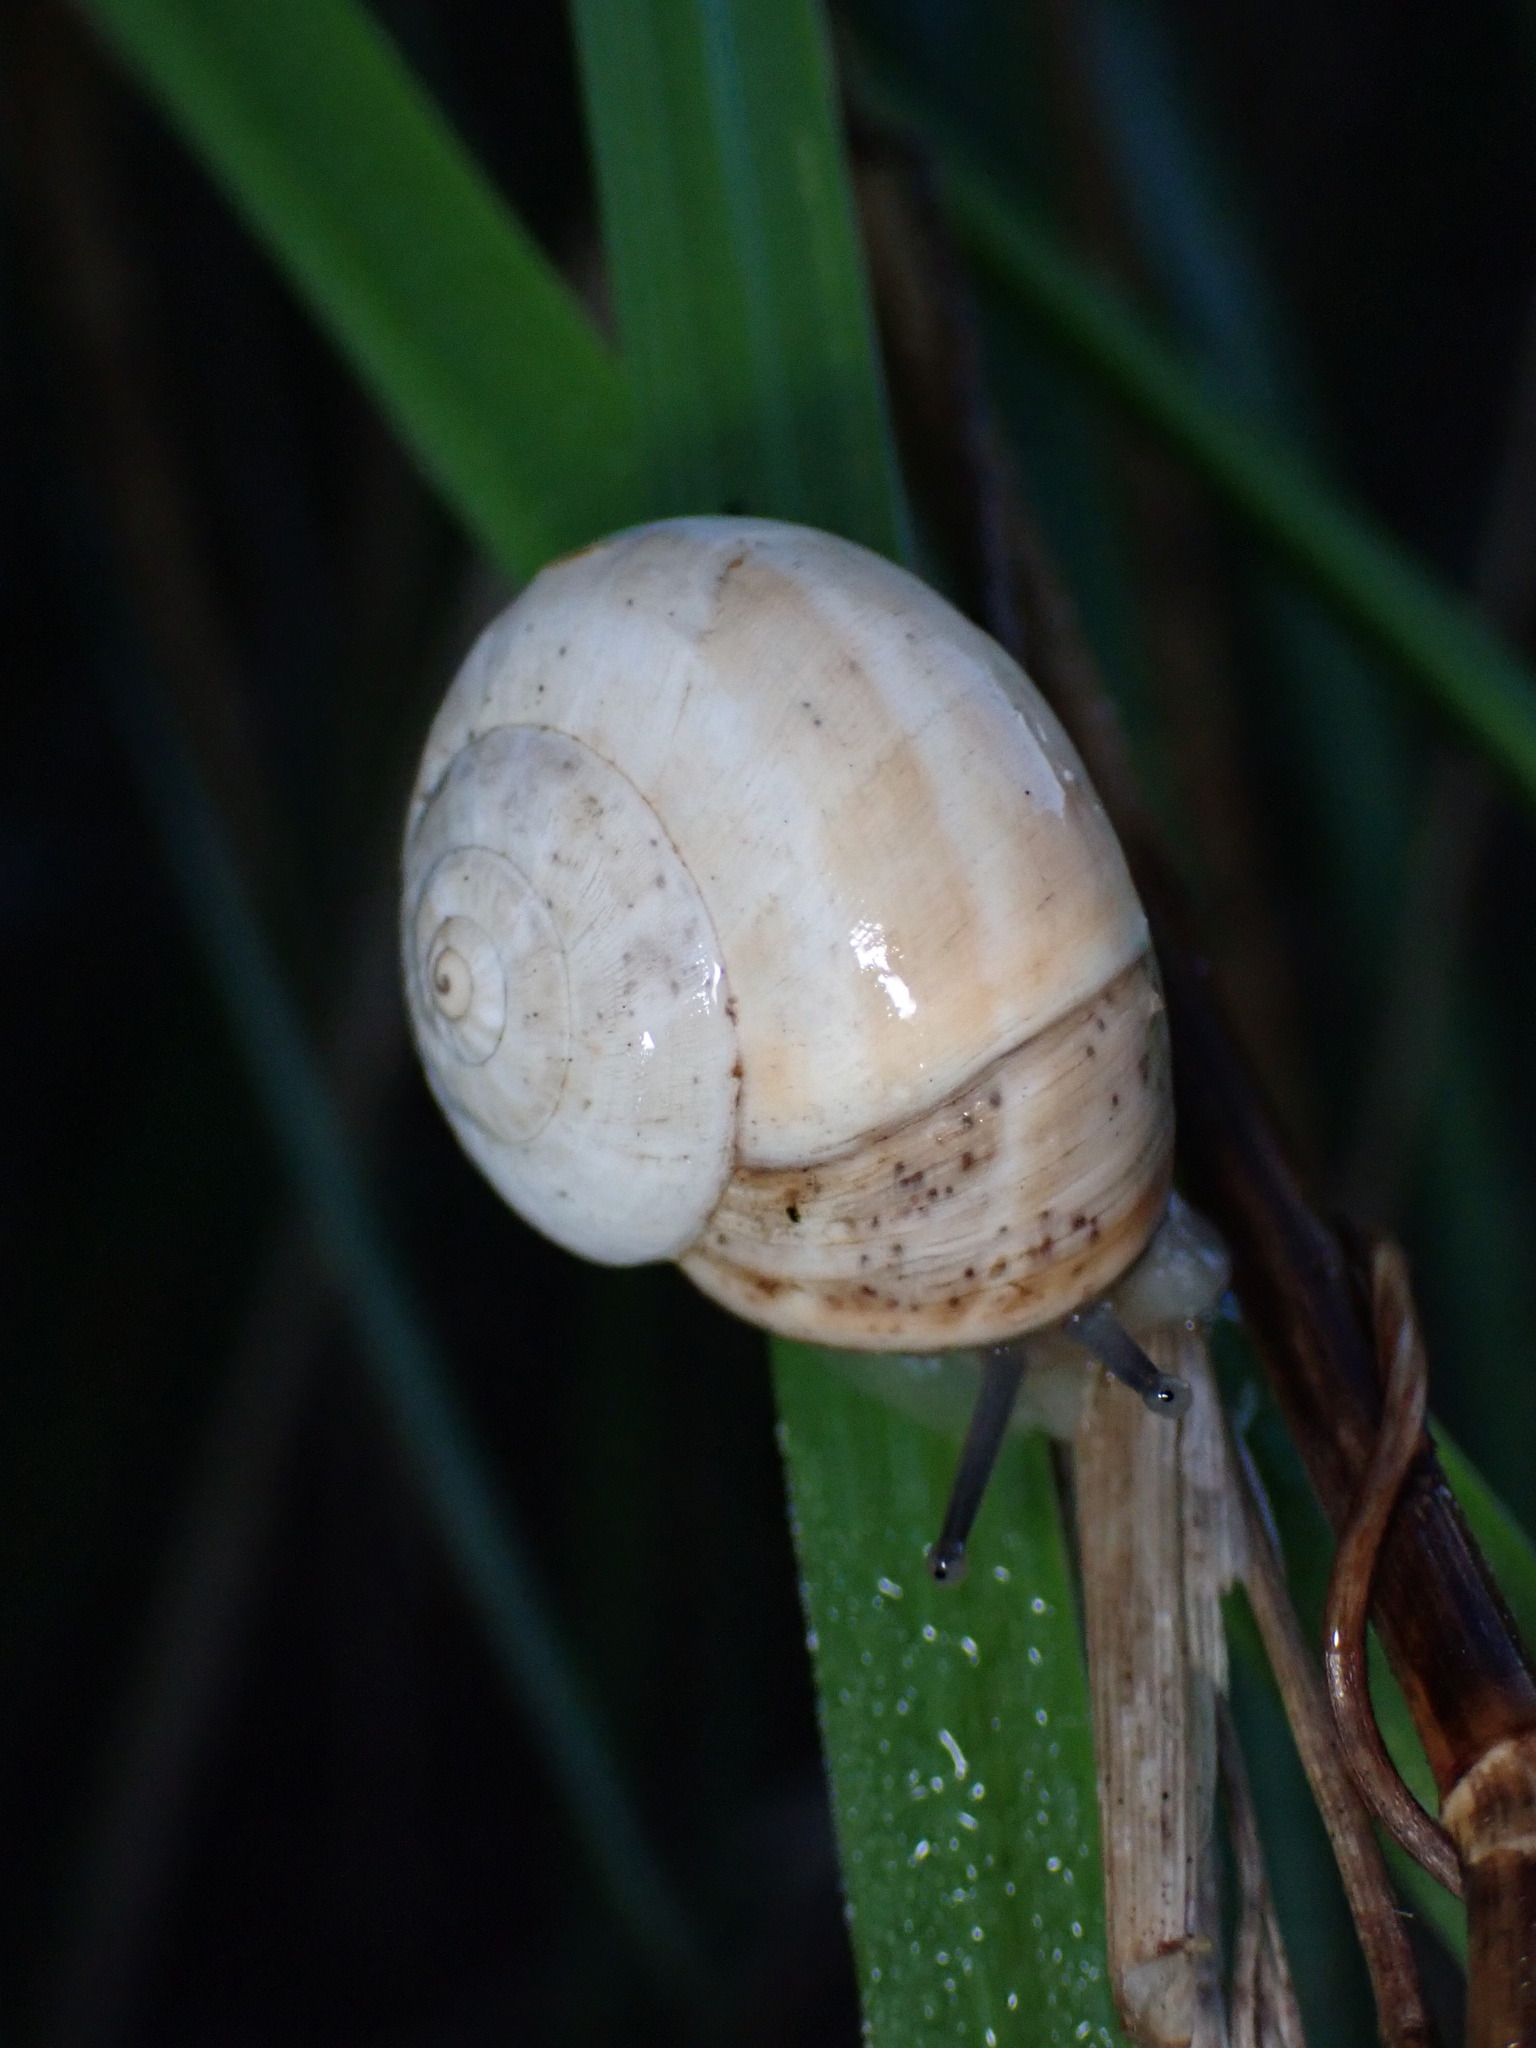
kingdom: Animalia
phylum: Mollusca
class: Gastropoda
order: Stylommatophora
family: Helicidae
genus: Theba
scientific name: Theba pisana
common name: White snail
